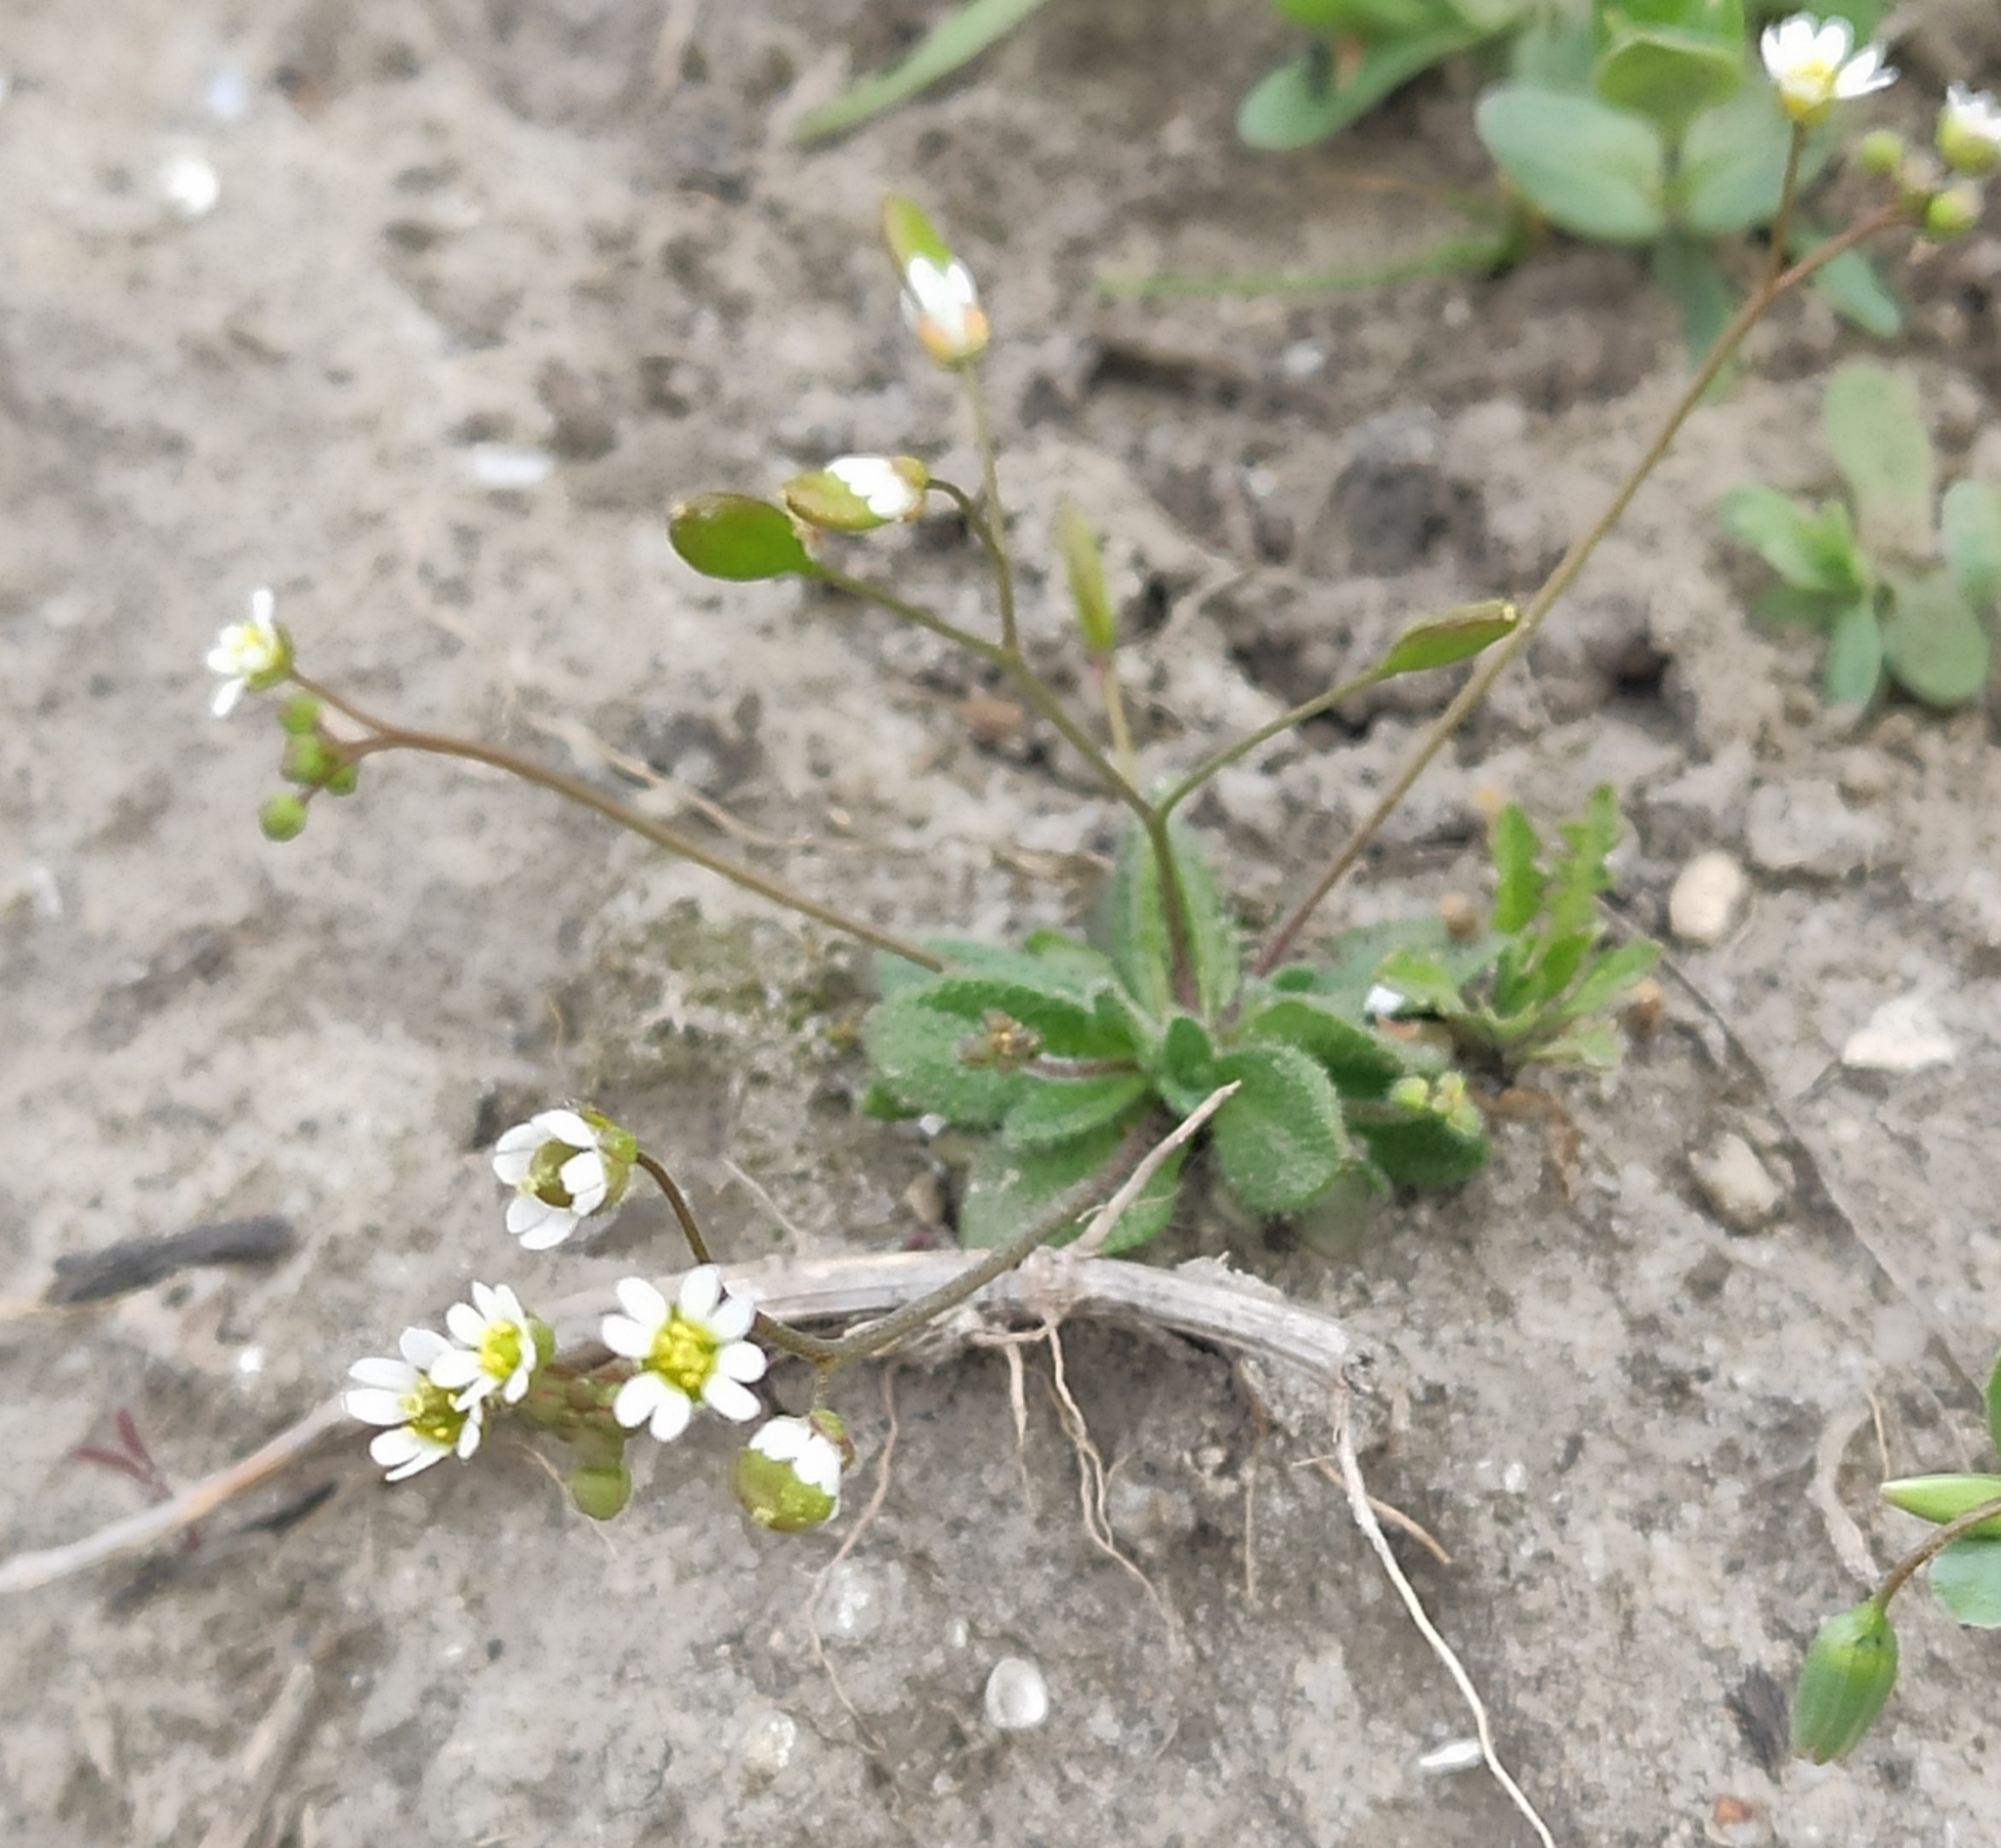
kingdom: Plantae
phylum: Tracheophyta
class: Magnoliopsida
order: Brassicales
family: Brassicaceae
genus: Draba
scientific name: Draba verna
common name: Spring draba
